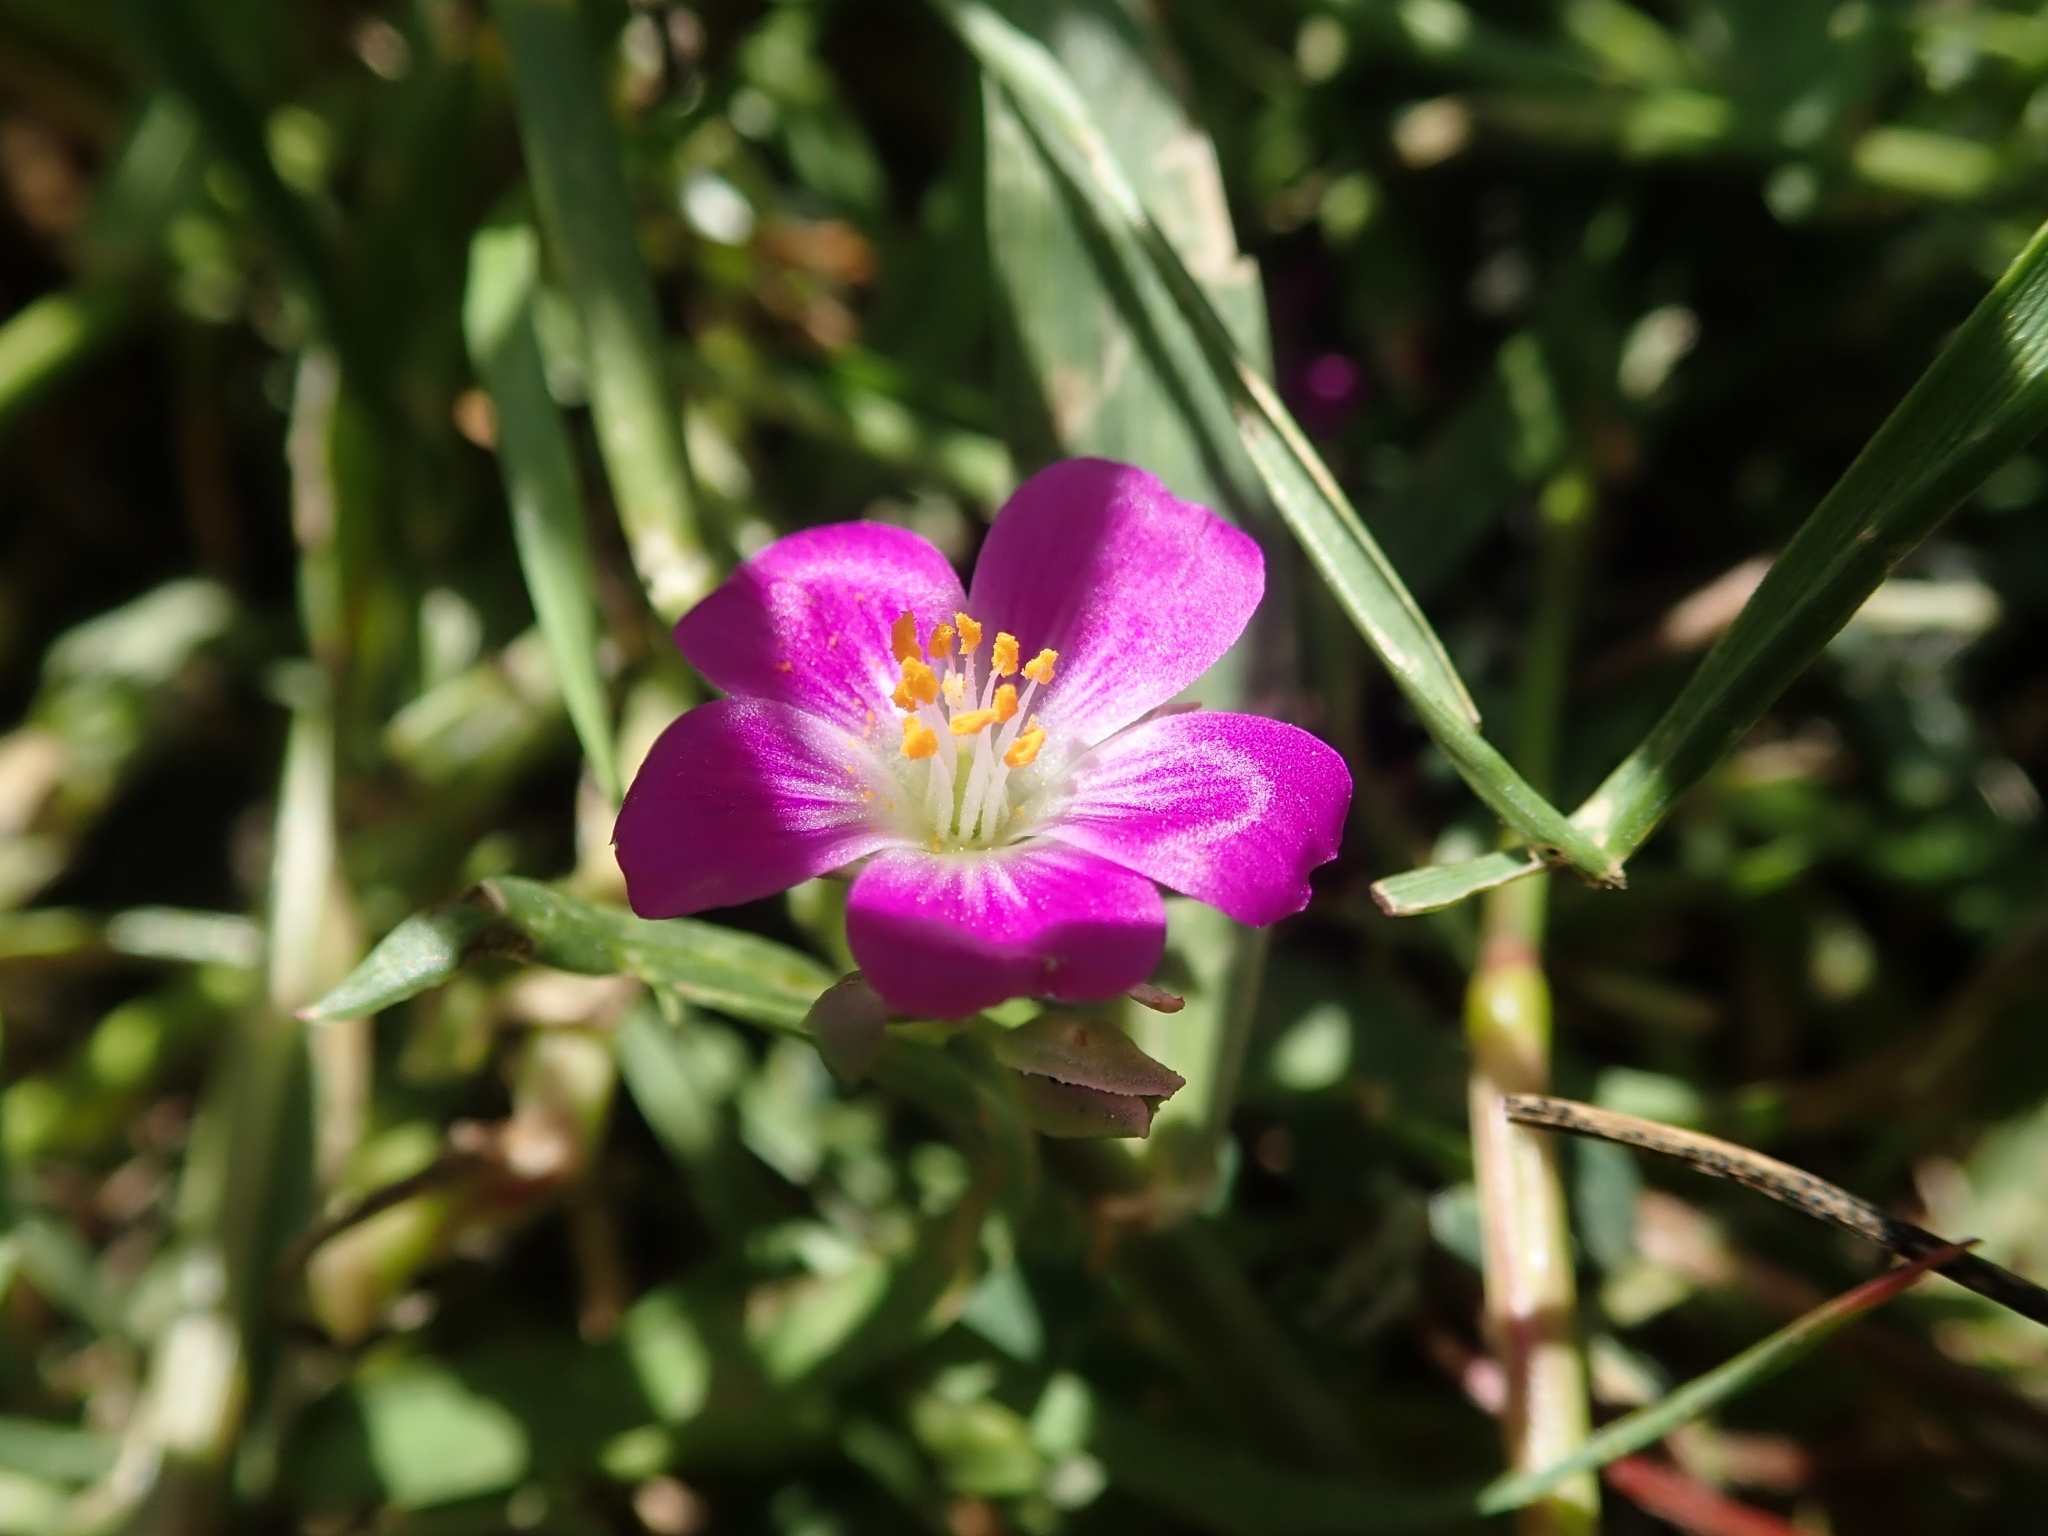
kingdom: Plantae
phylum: Tracheophyta
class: Magnoliopsida
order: Caryophyllales
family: Montiaceae
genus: Calandrinia
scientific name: Calandrinia menziesii
